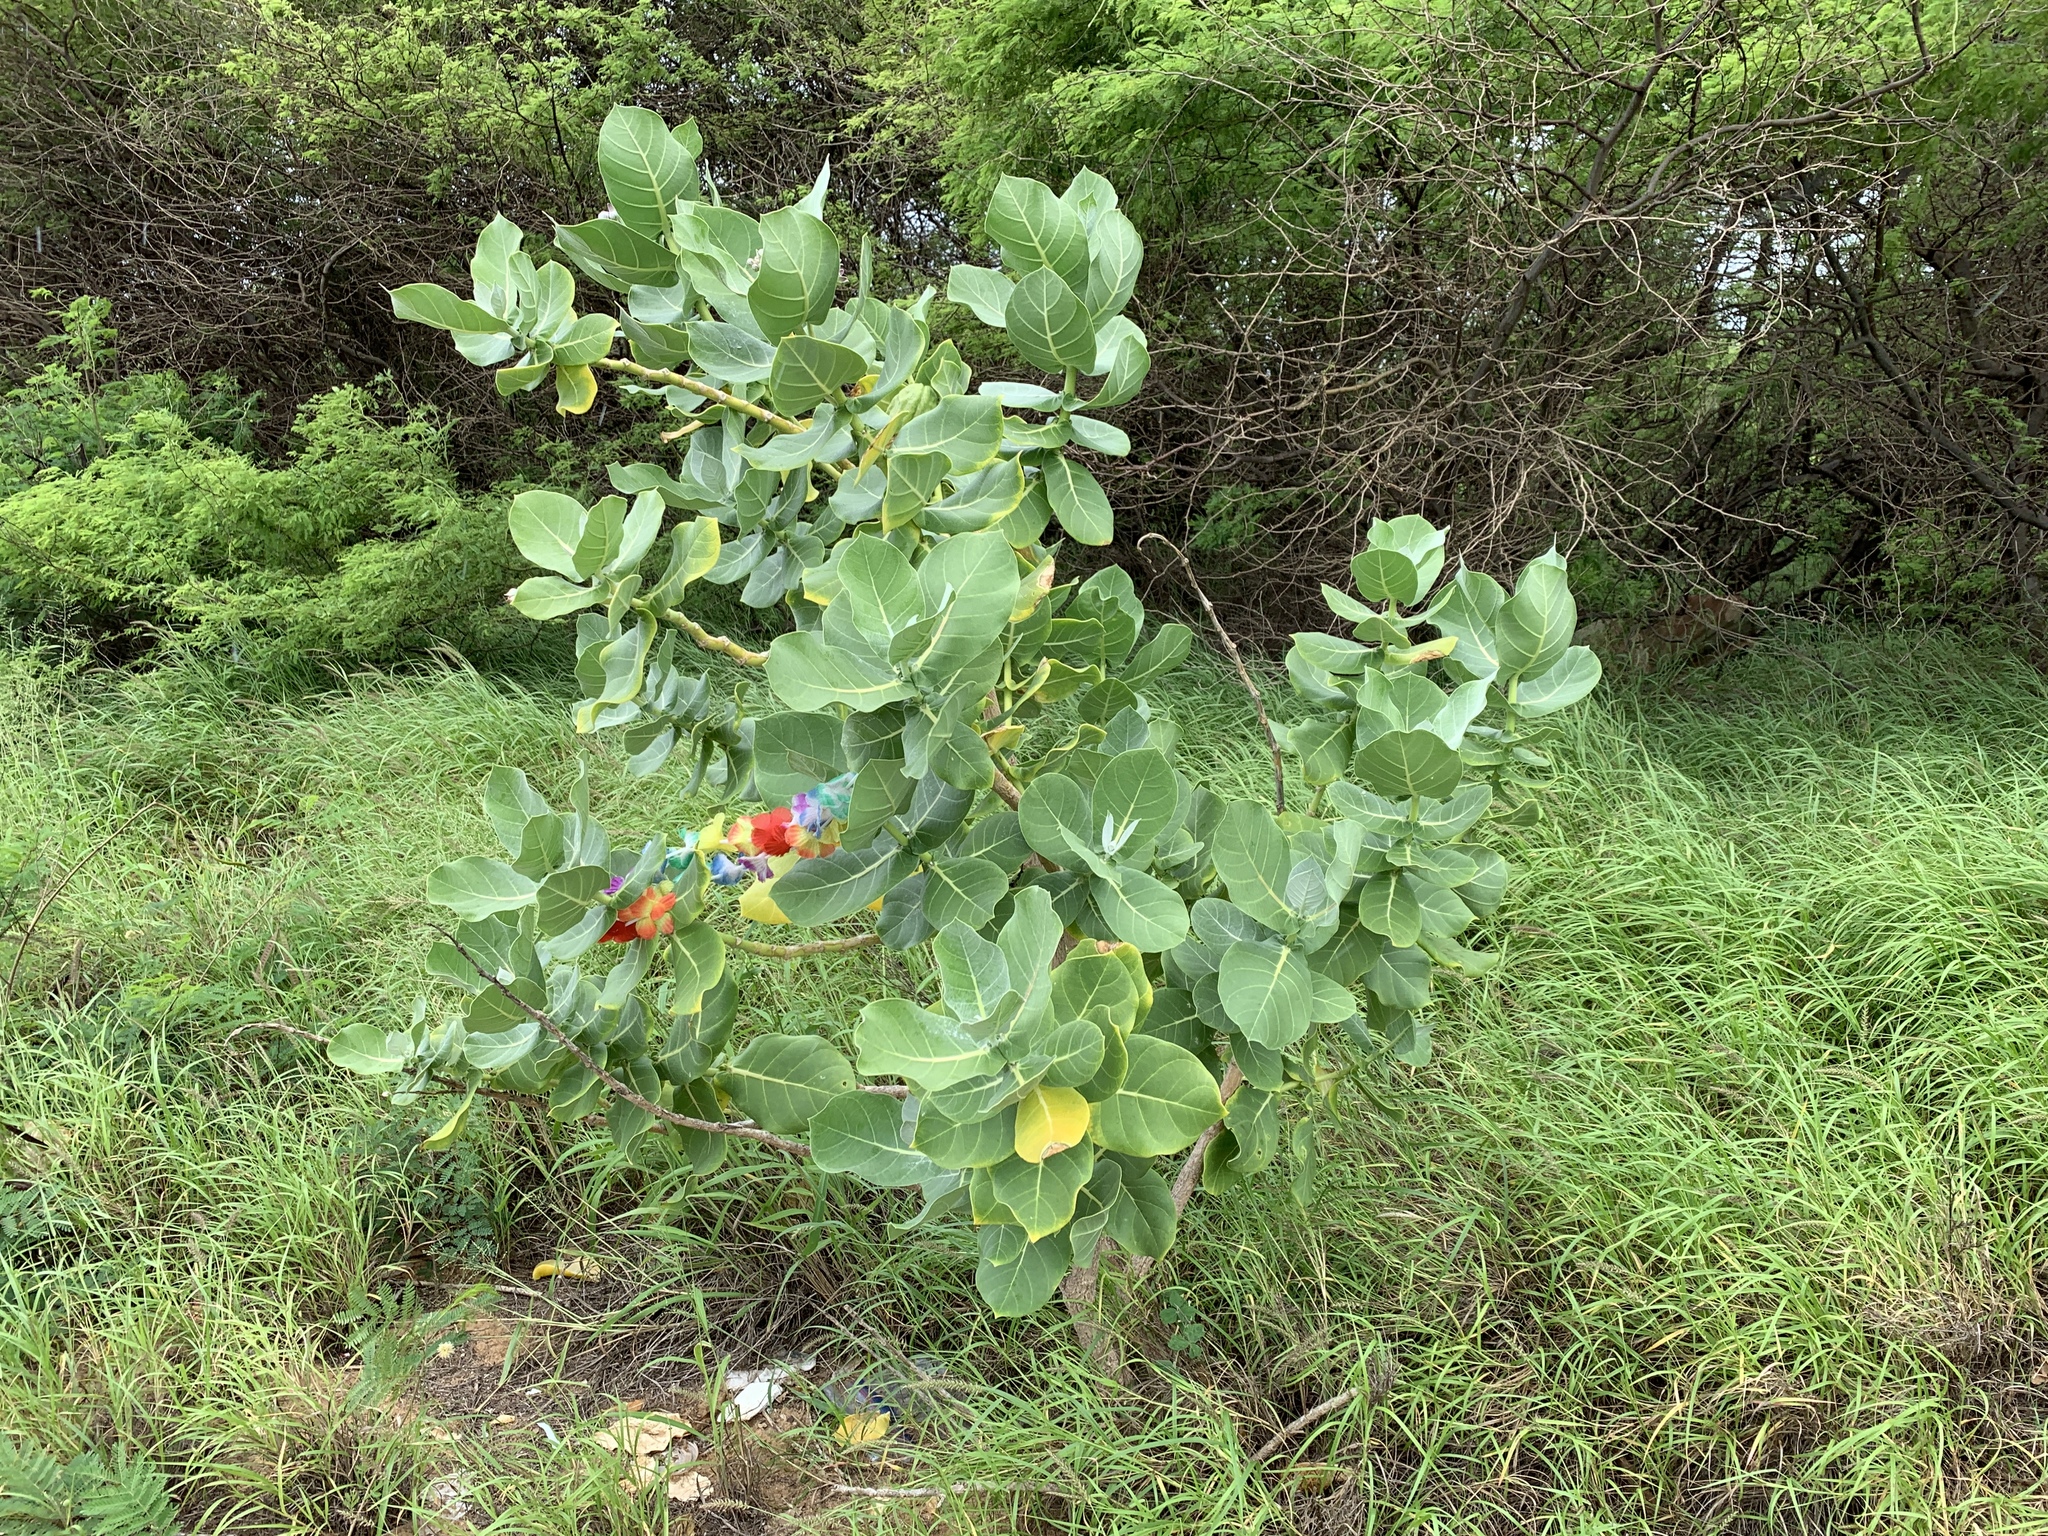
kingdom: Plantae
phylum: Tracheophyta
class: Magnoliopsida
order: Gentianales
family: Apocynaceae
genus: Calotropis
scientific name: Calotropis procera
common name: Roostertree
